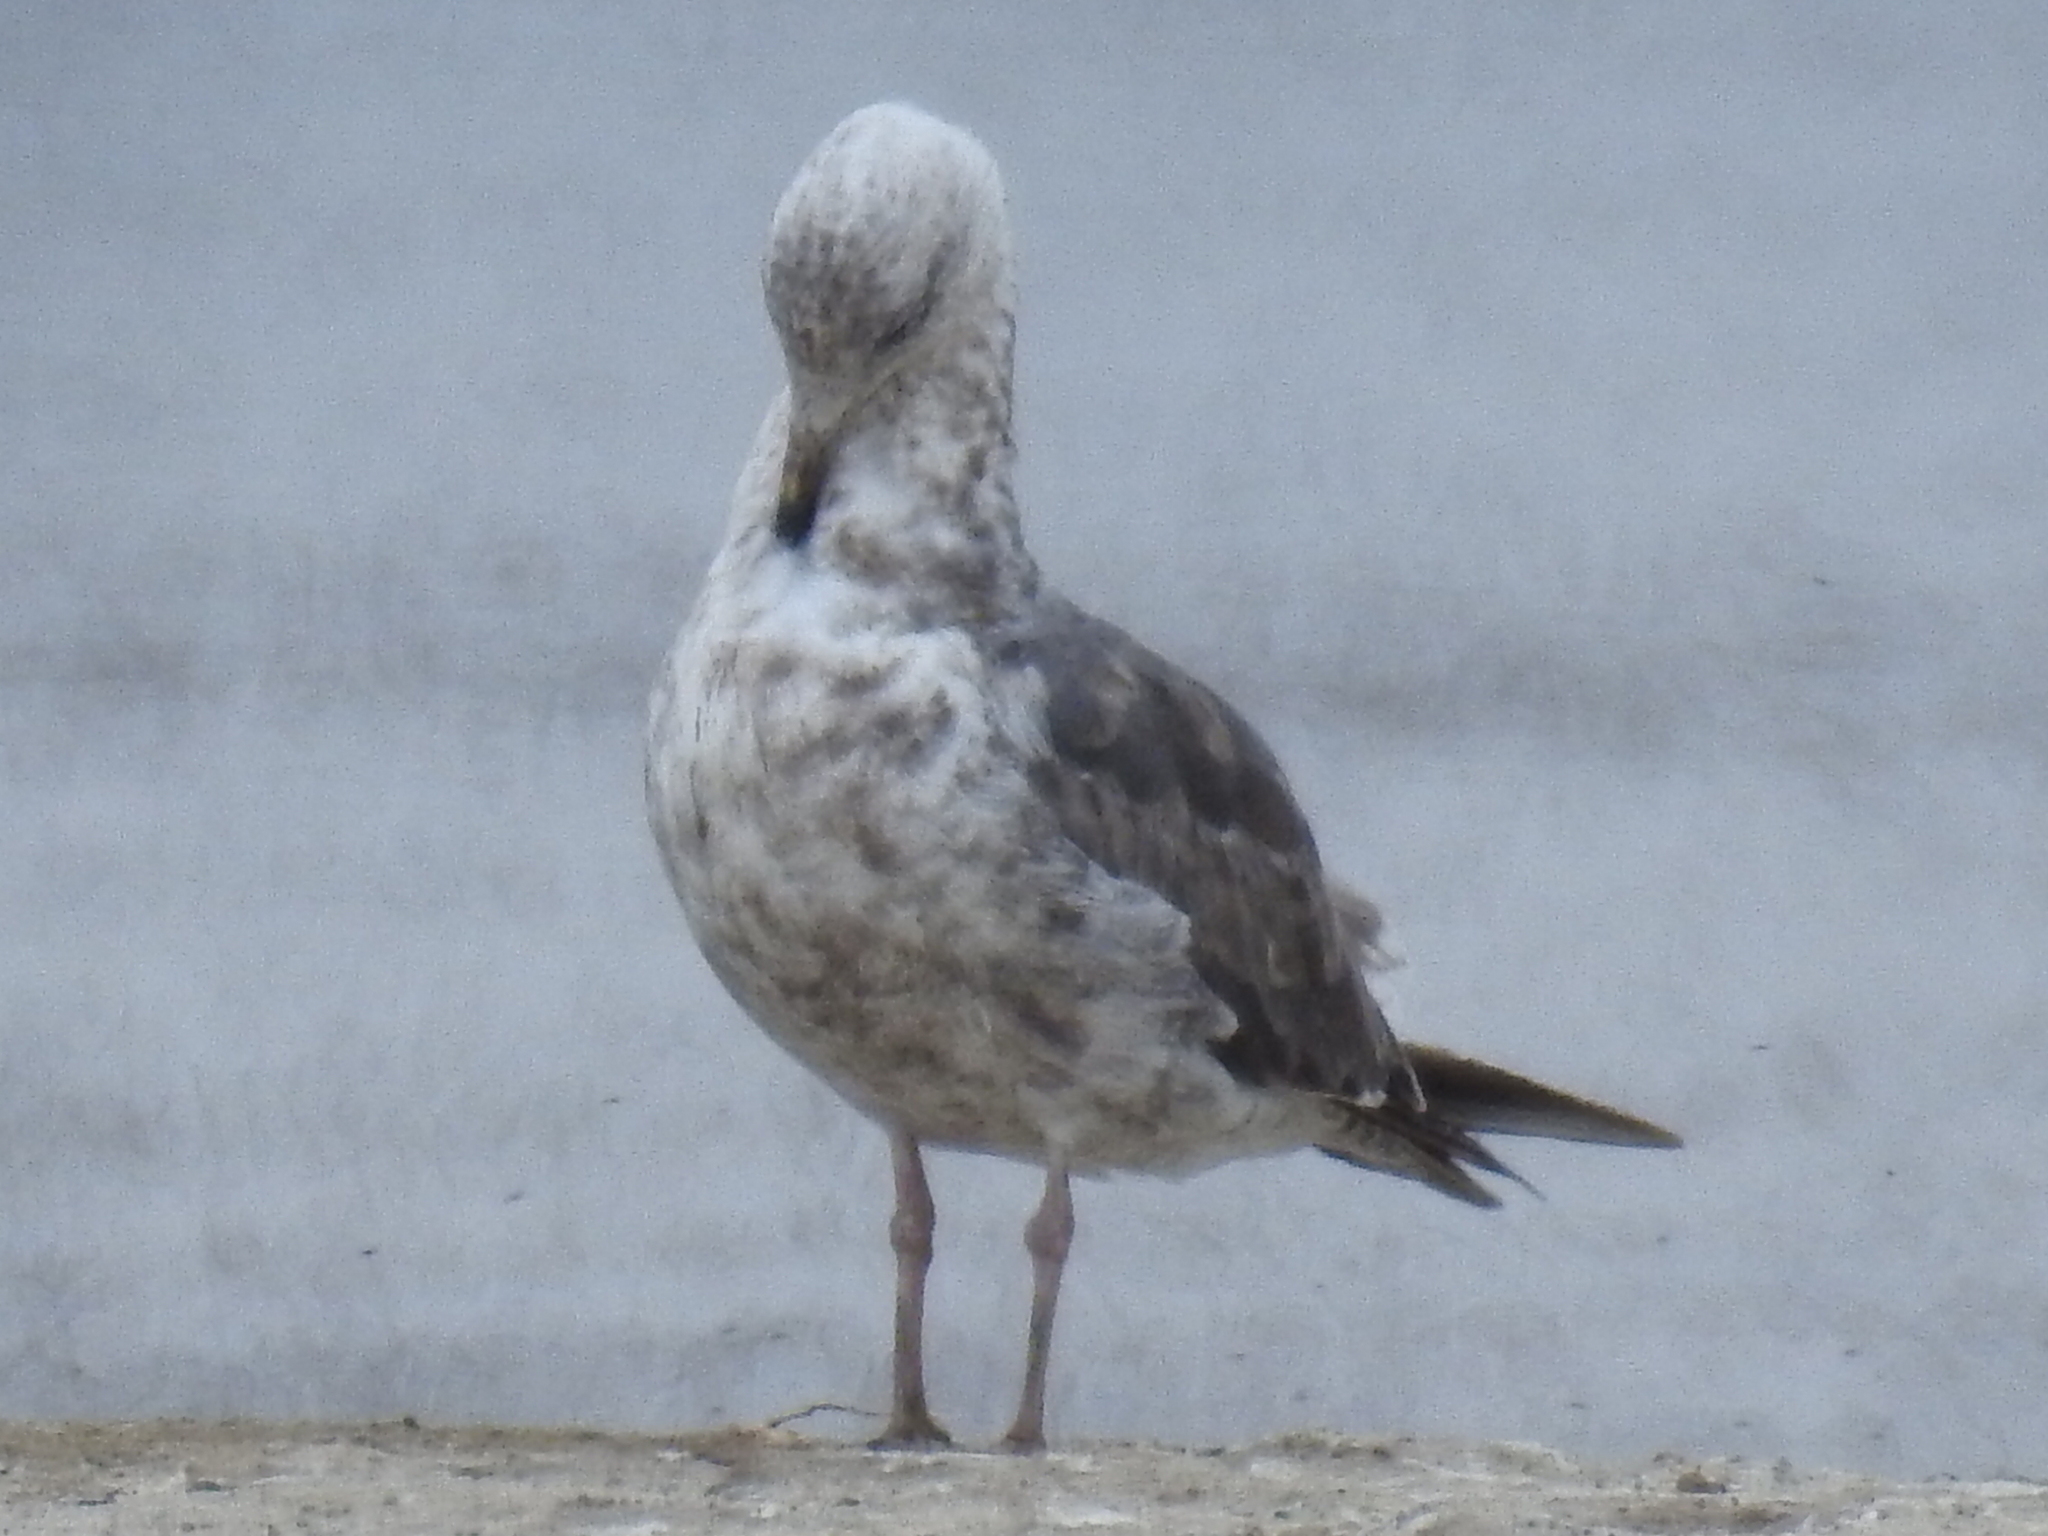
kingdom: Animalia
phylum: Chordata
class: Aves
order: Charadriiformes
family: Laridae
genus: Larus
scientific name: Larus occidentalis
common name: Western gull
